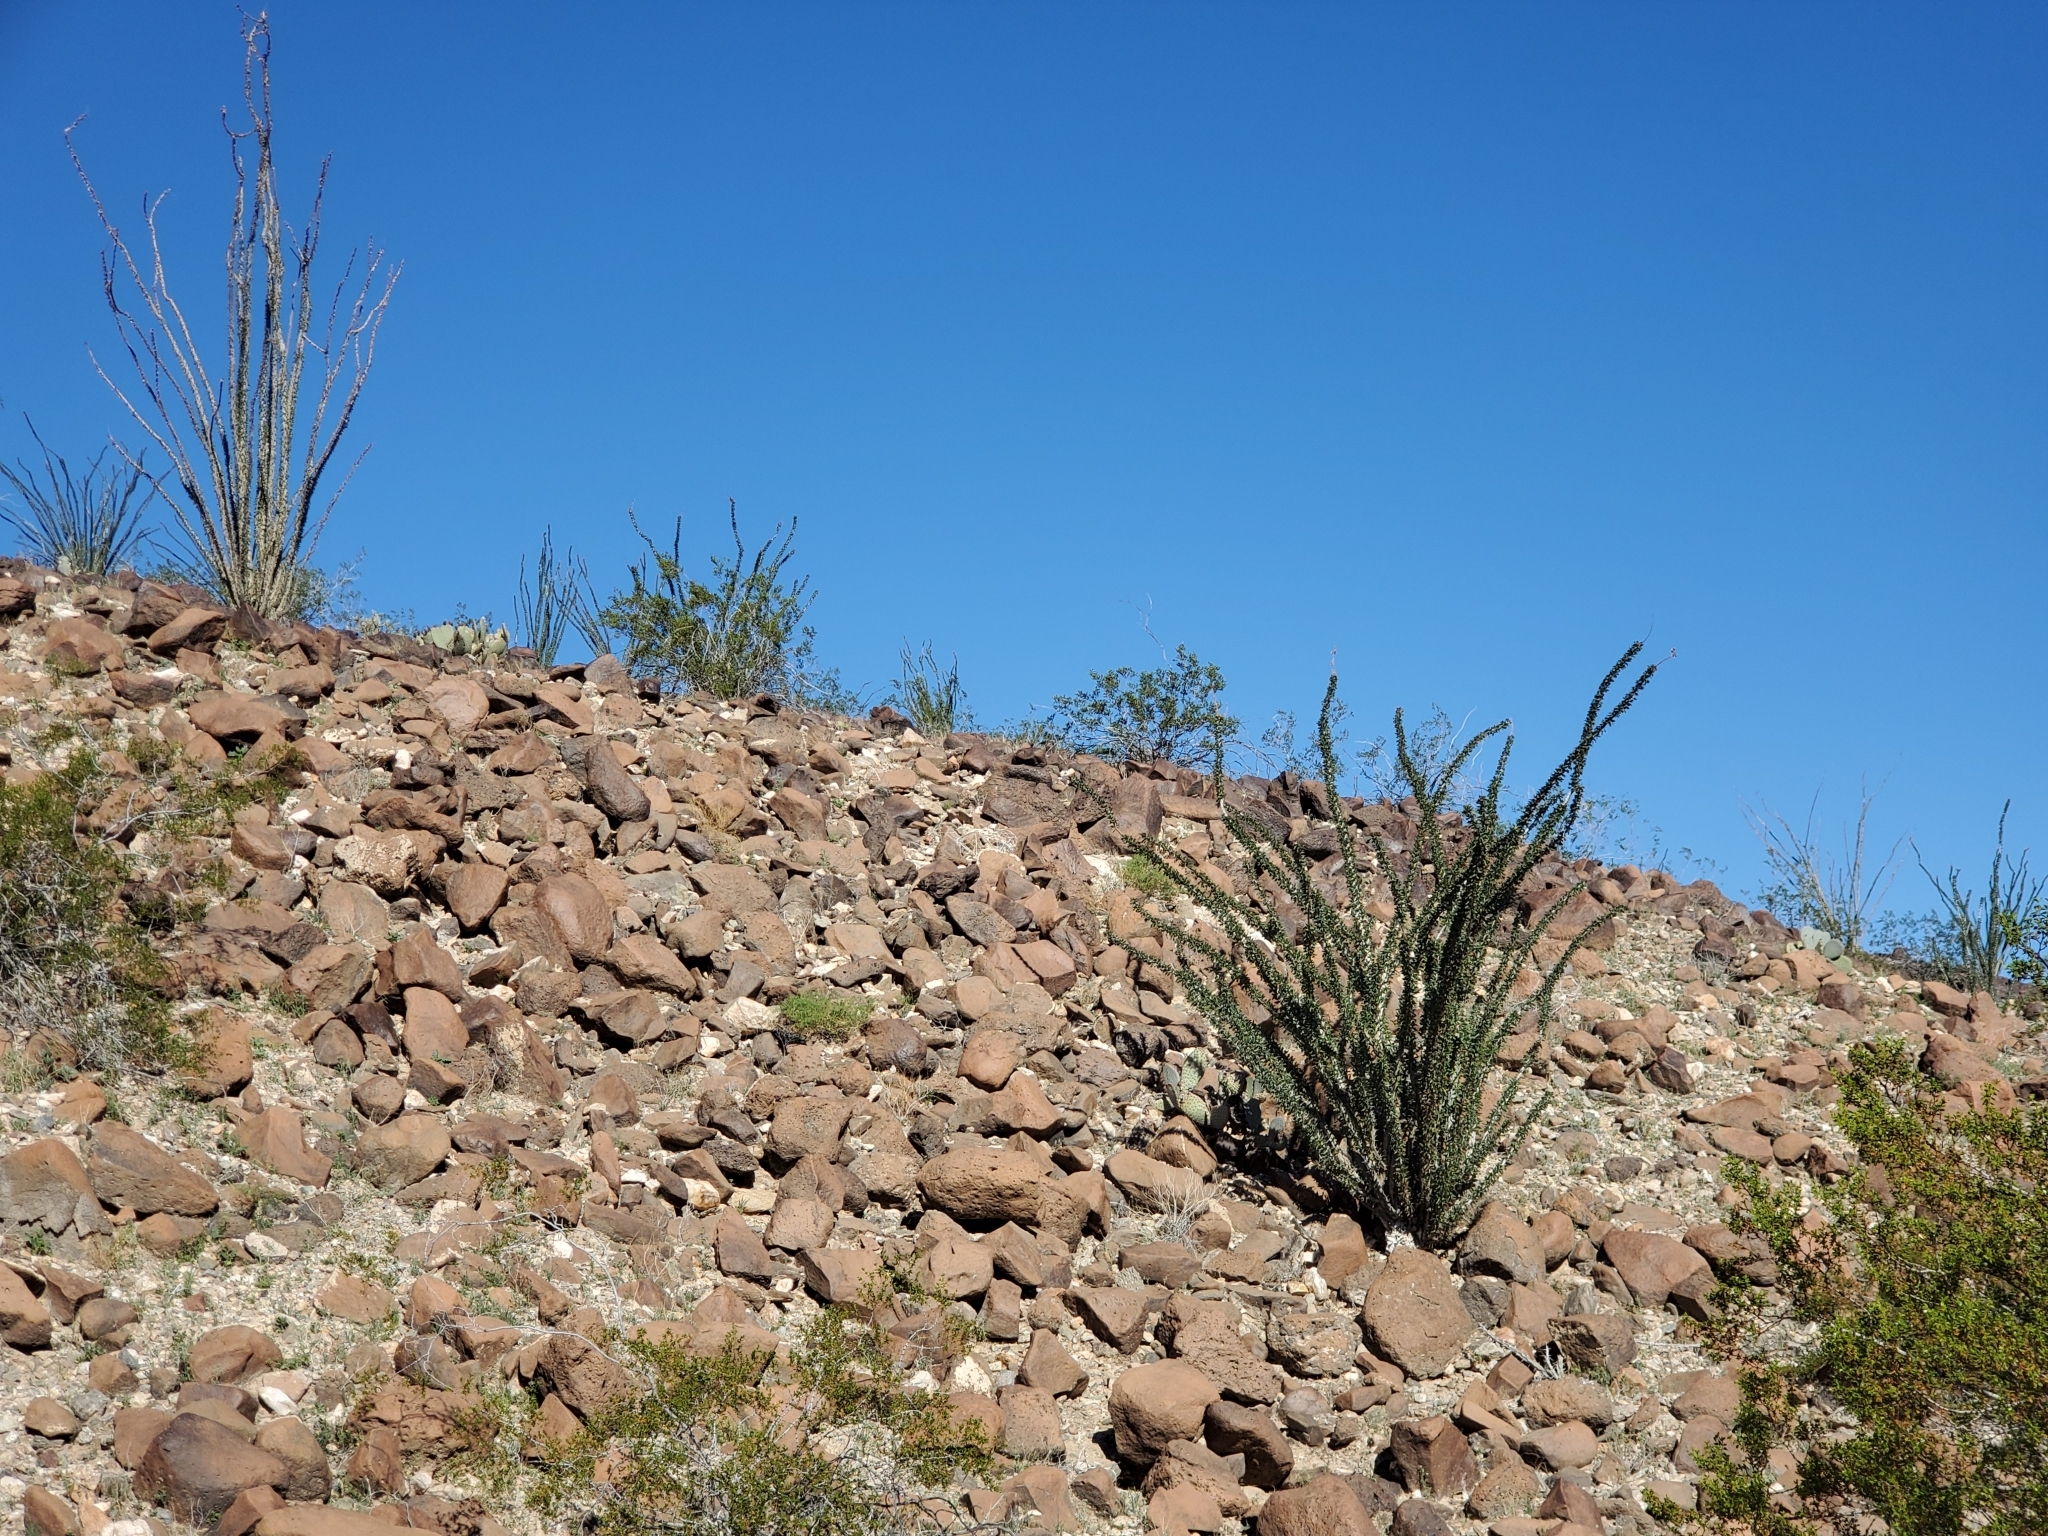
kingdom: Plantae
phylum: Tracheophyta
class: Magnoliopsida
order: Ericales
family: Fouquieriaceae
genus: Fouquieria
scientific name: Fouquieria splendens
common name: Vine-cactus
